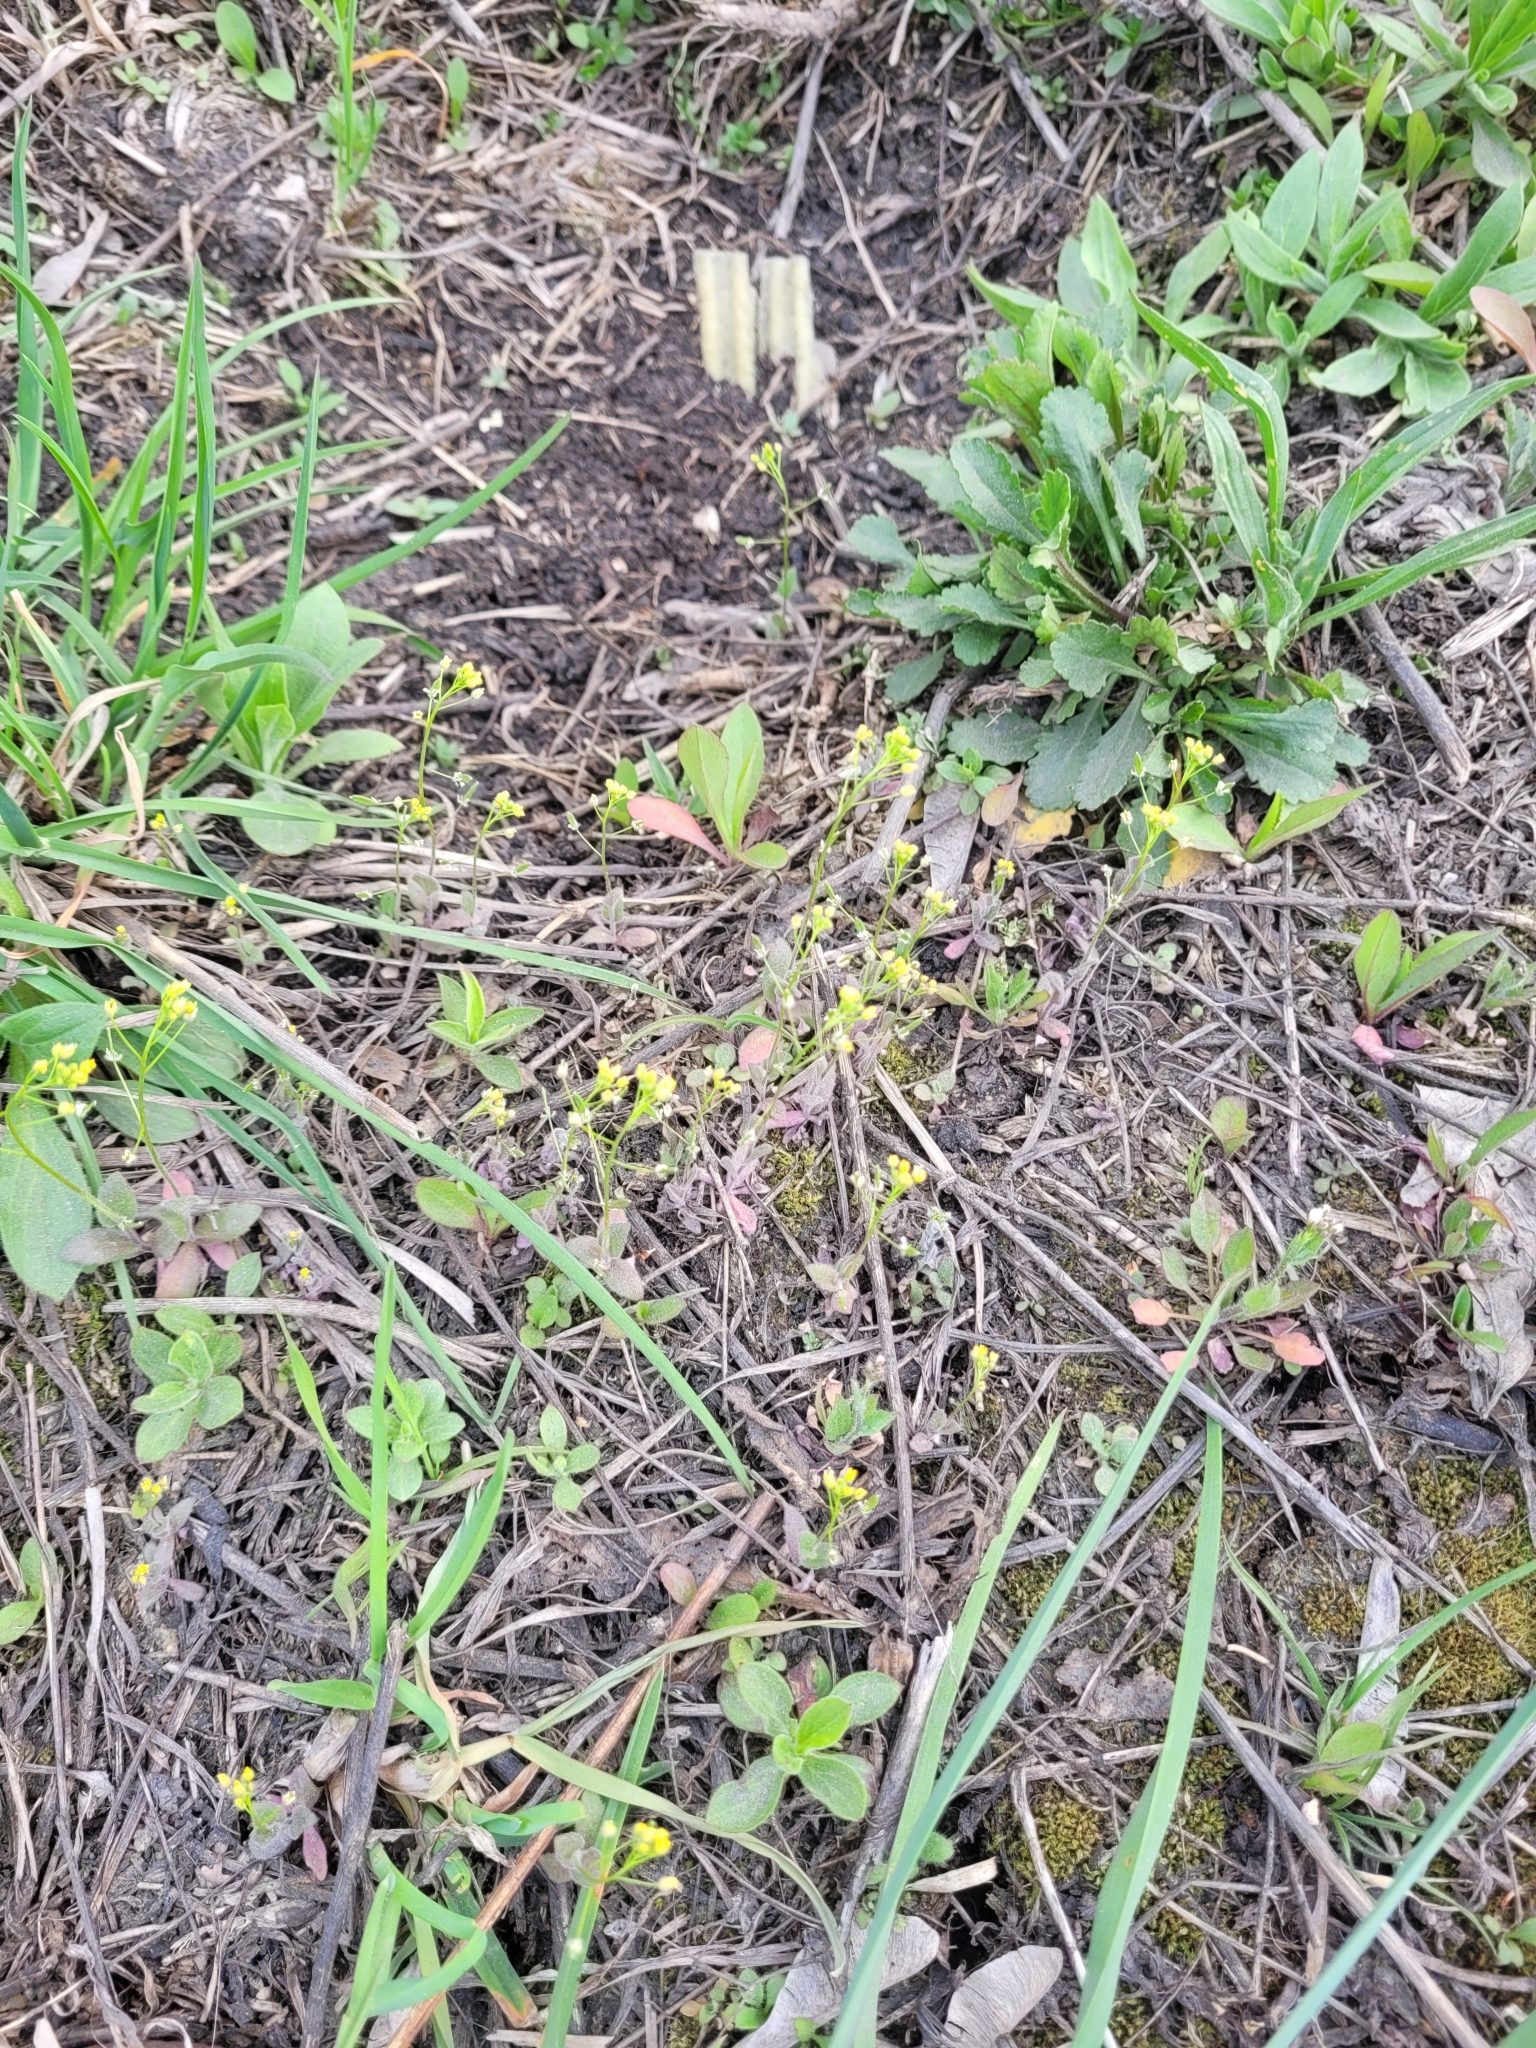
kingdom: Plantae
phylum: Tracheophyta
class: Magnoliopsida
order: Brassicales
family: Brassicaceae
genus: Draba
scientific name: Draba nemorosa
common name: Wood whitlow-grass
